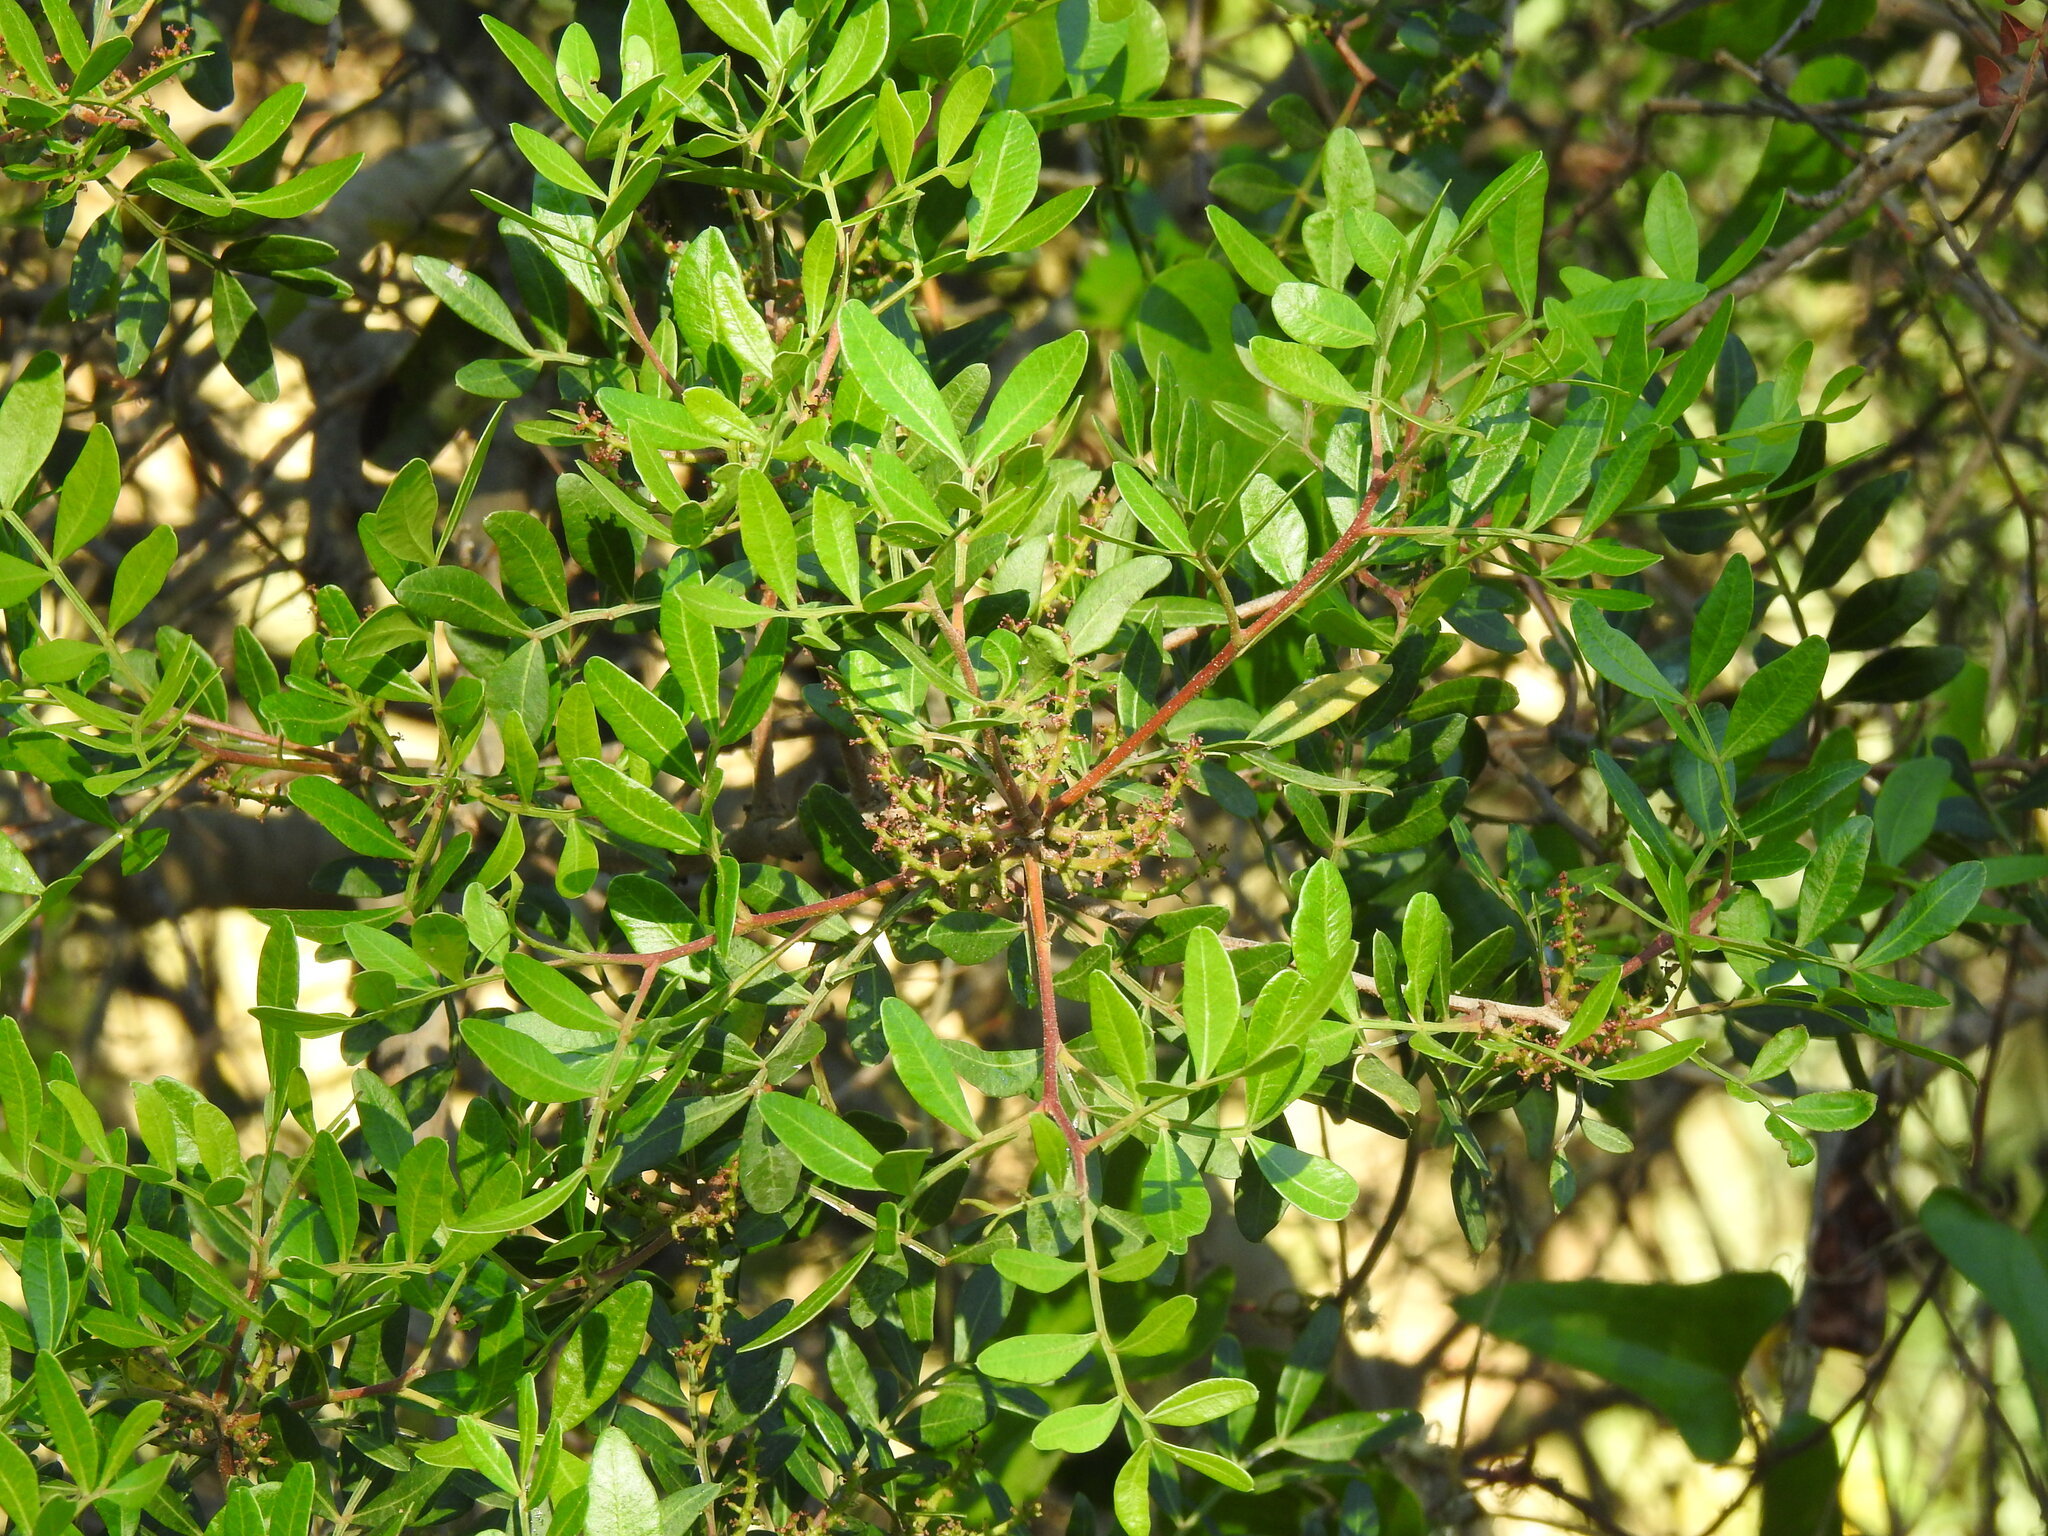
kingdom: Plantae
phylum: Tracheophyta
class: Magnoliopsida
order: Sapindales
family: Anacardiaceae
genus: Pistacia
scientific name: Pistacia lentiscus
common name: Lentisk
